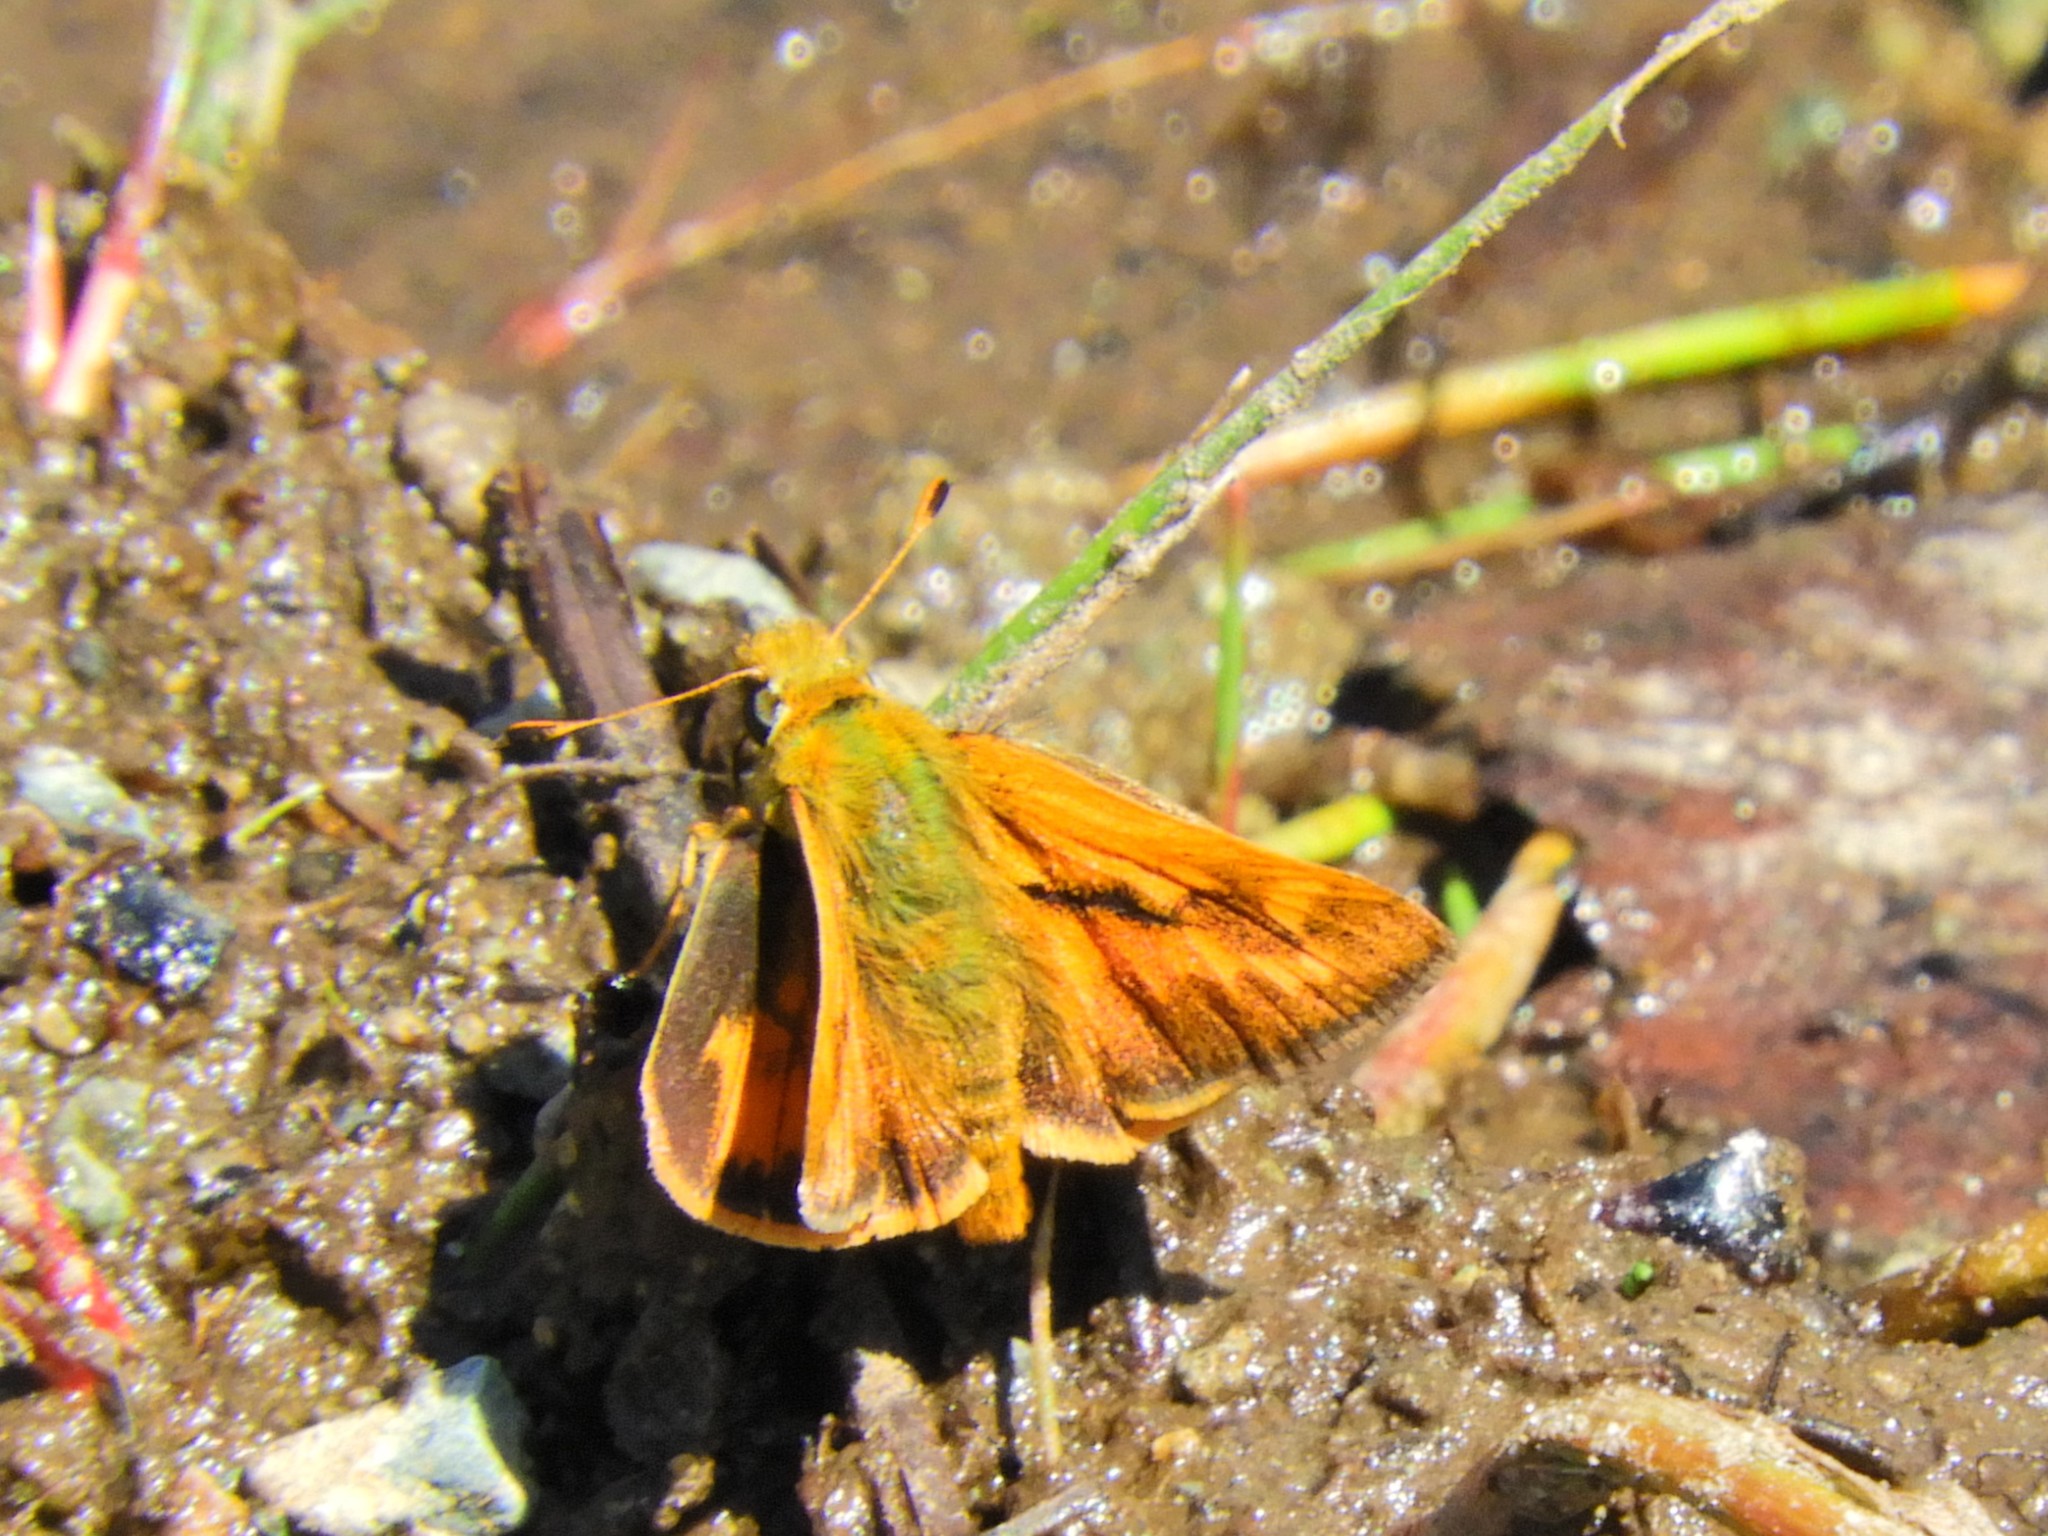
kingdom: Animalia
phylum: Arthropoda
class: Insecta
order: Lepidoptera
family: Hesperiidae
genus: Ochlodes
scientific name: Ochlodes sylvanoides
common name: Woodland skipper
